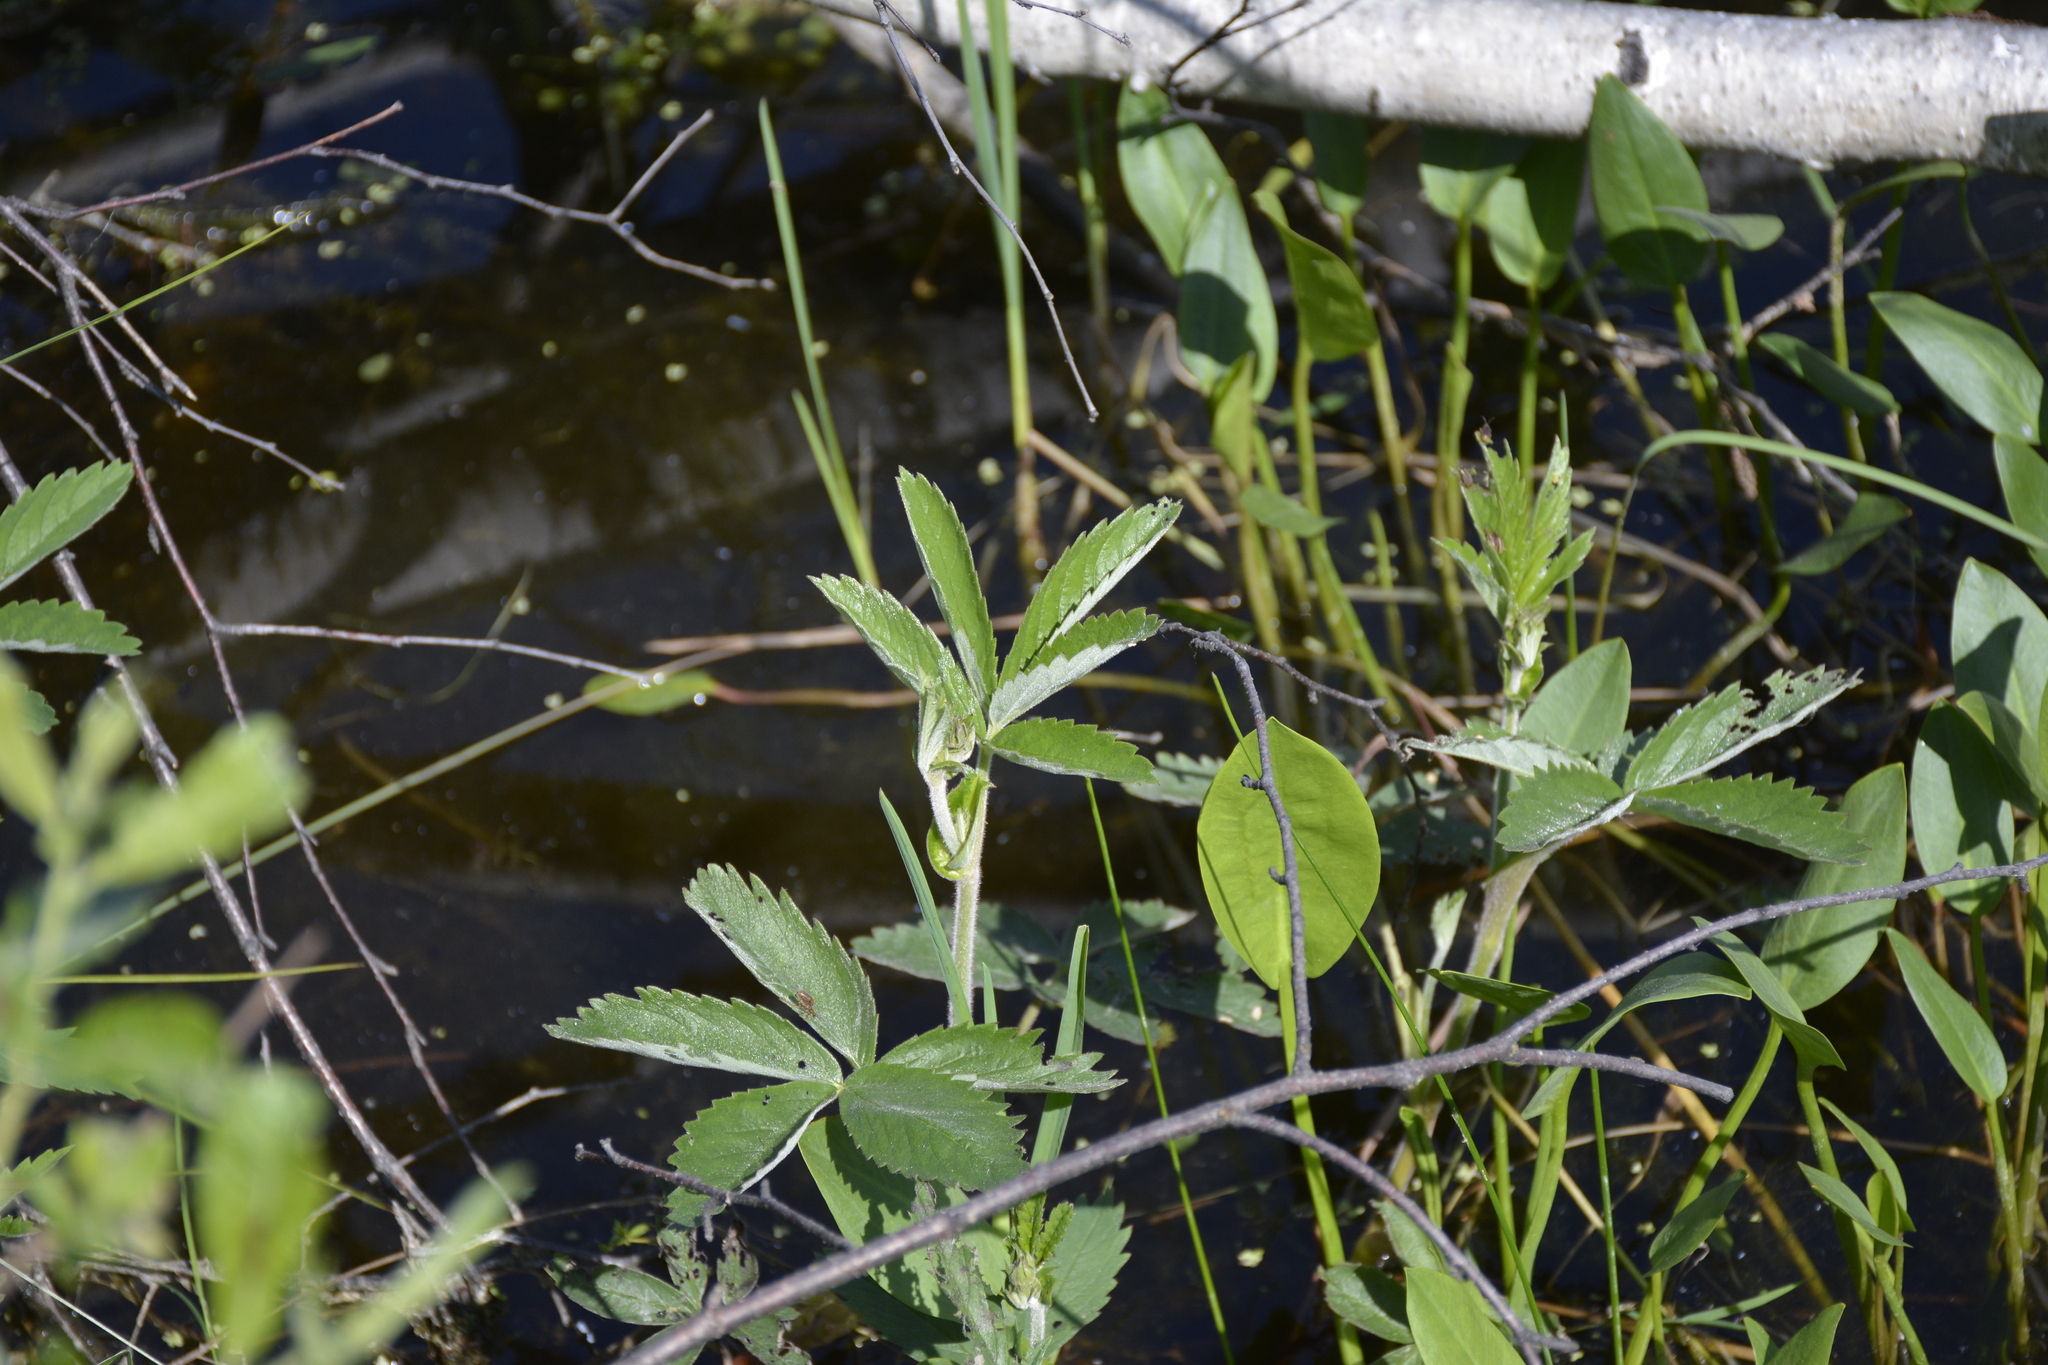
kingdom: Plantae
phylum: Tracheophyta
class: Magnoliopsida
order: Rosales
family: Rosaceae
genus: Comarum
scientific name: Comarum palustre
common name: Marsh cinquefoil
